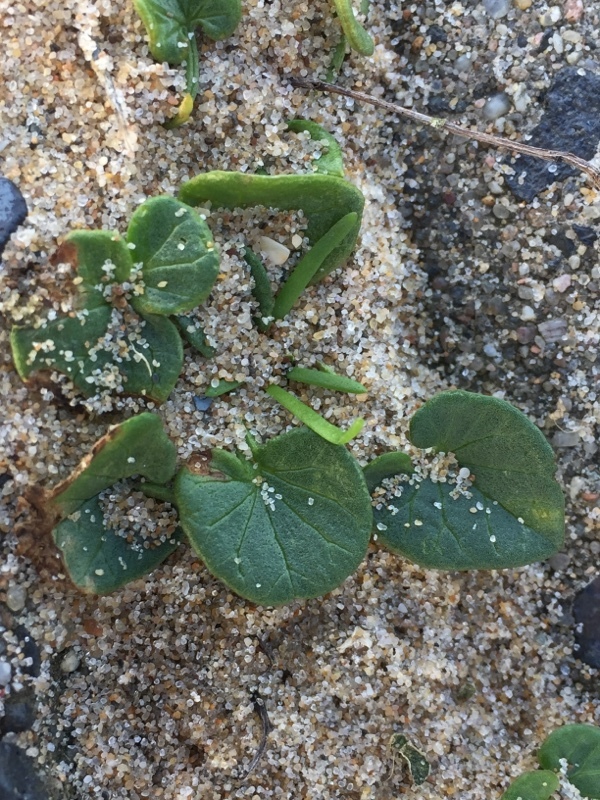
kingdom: Plantae
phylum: Tracheophyta
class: Magnoliopsida
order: Solanales
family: Convolvulaceae
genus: Calystegia
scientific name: Calystegia soldanella
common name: Sea bindweed
